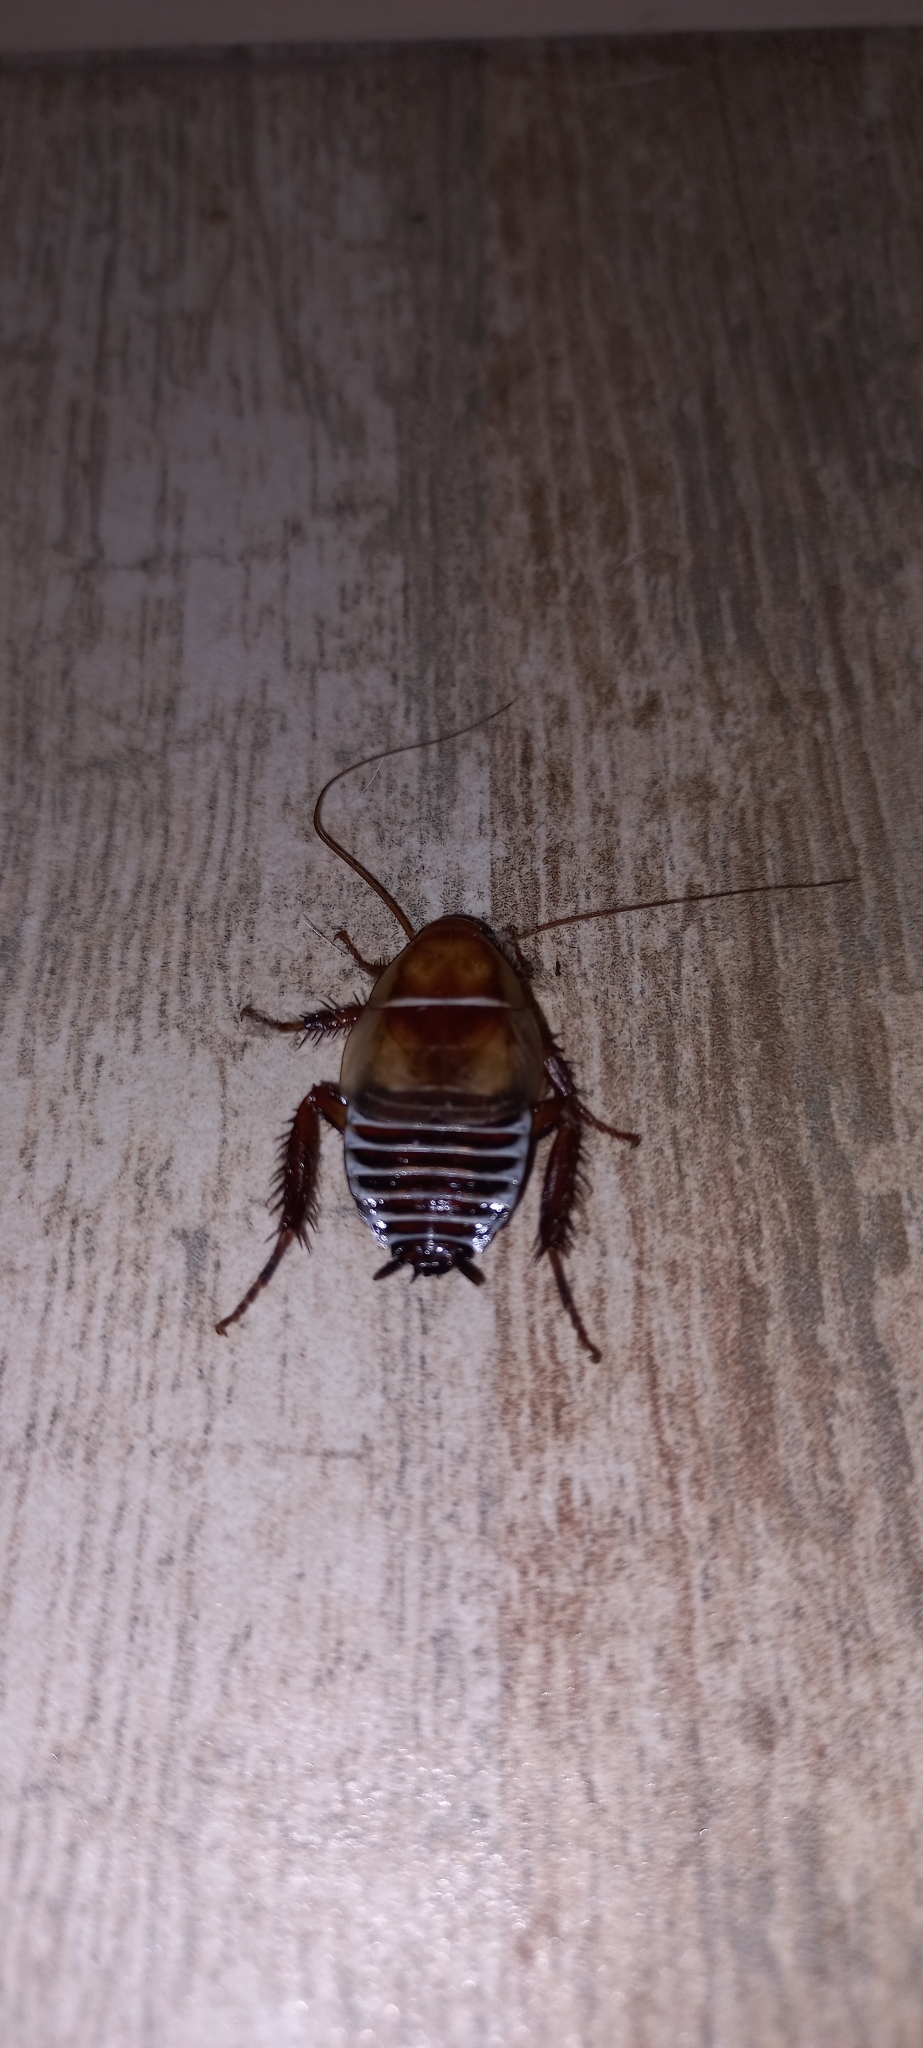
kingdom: Animalia
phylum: Arthropoda
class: Insecta
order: Blattodea
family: Ectobiidae
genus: Temnopteryx
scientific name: Temnopteryx phalerata
